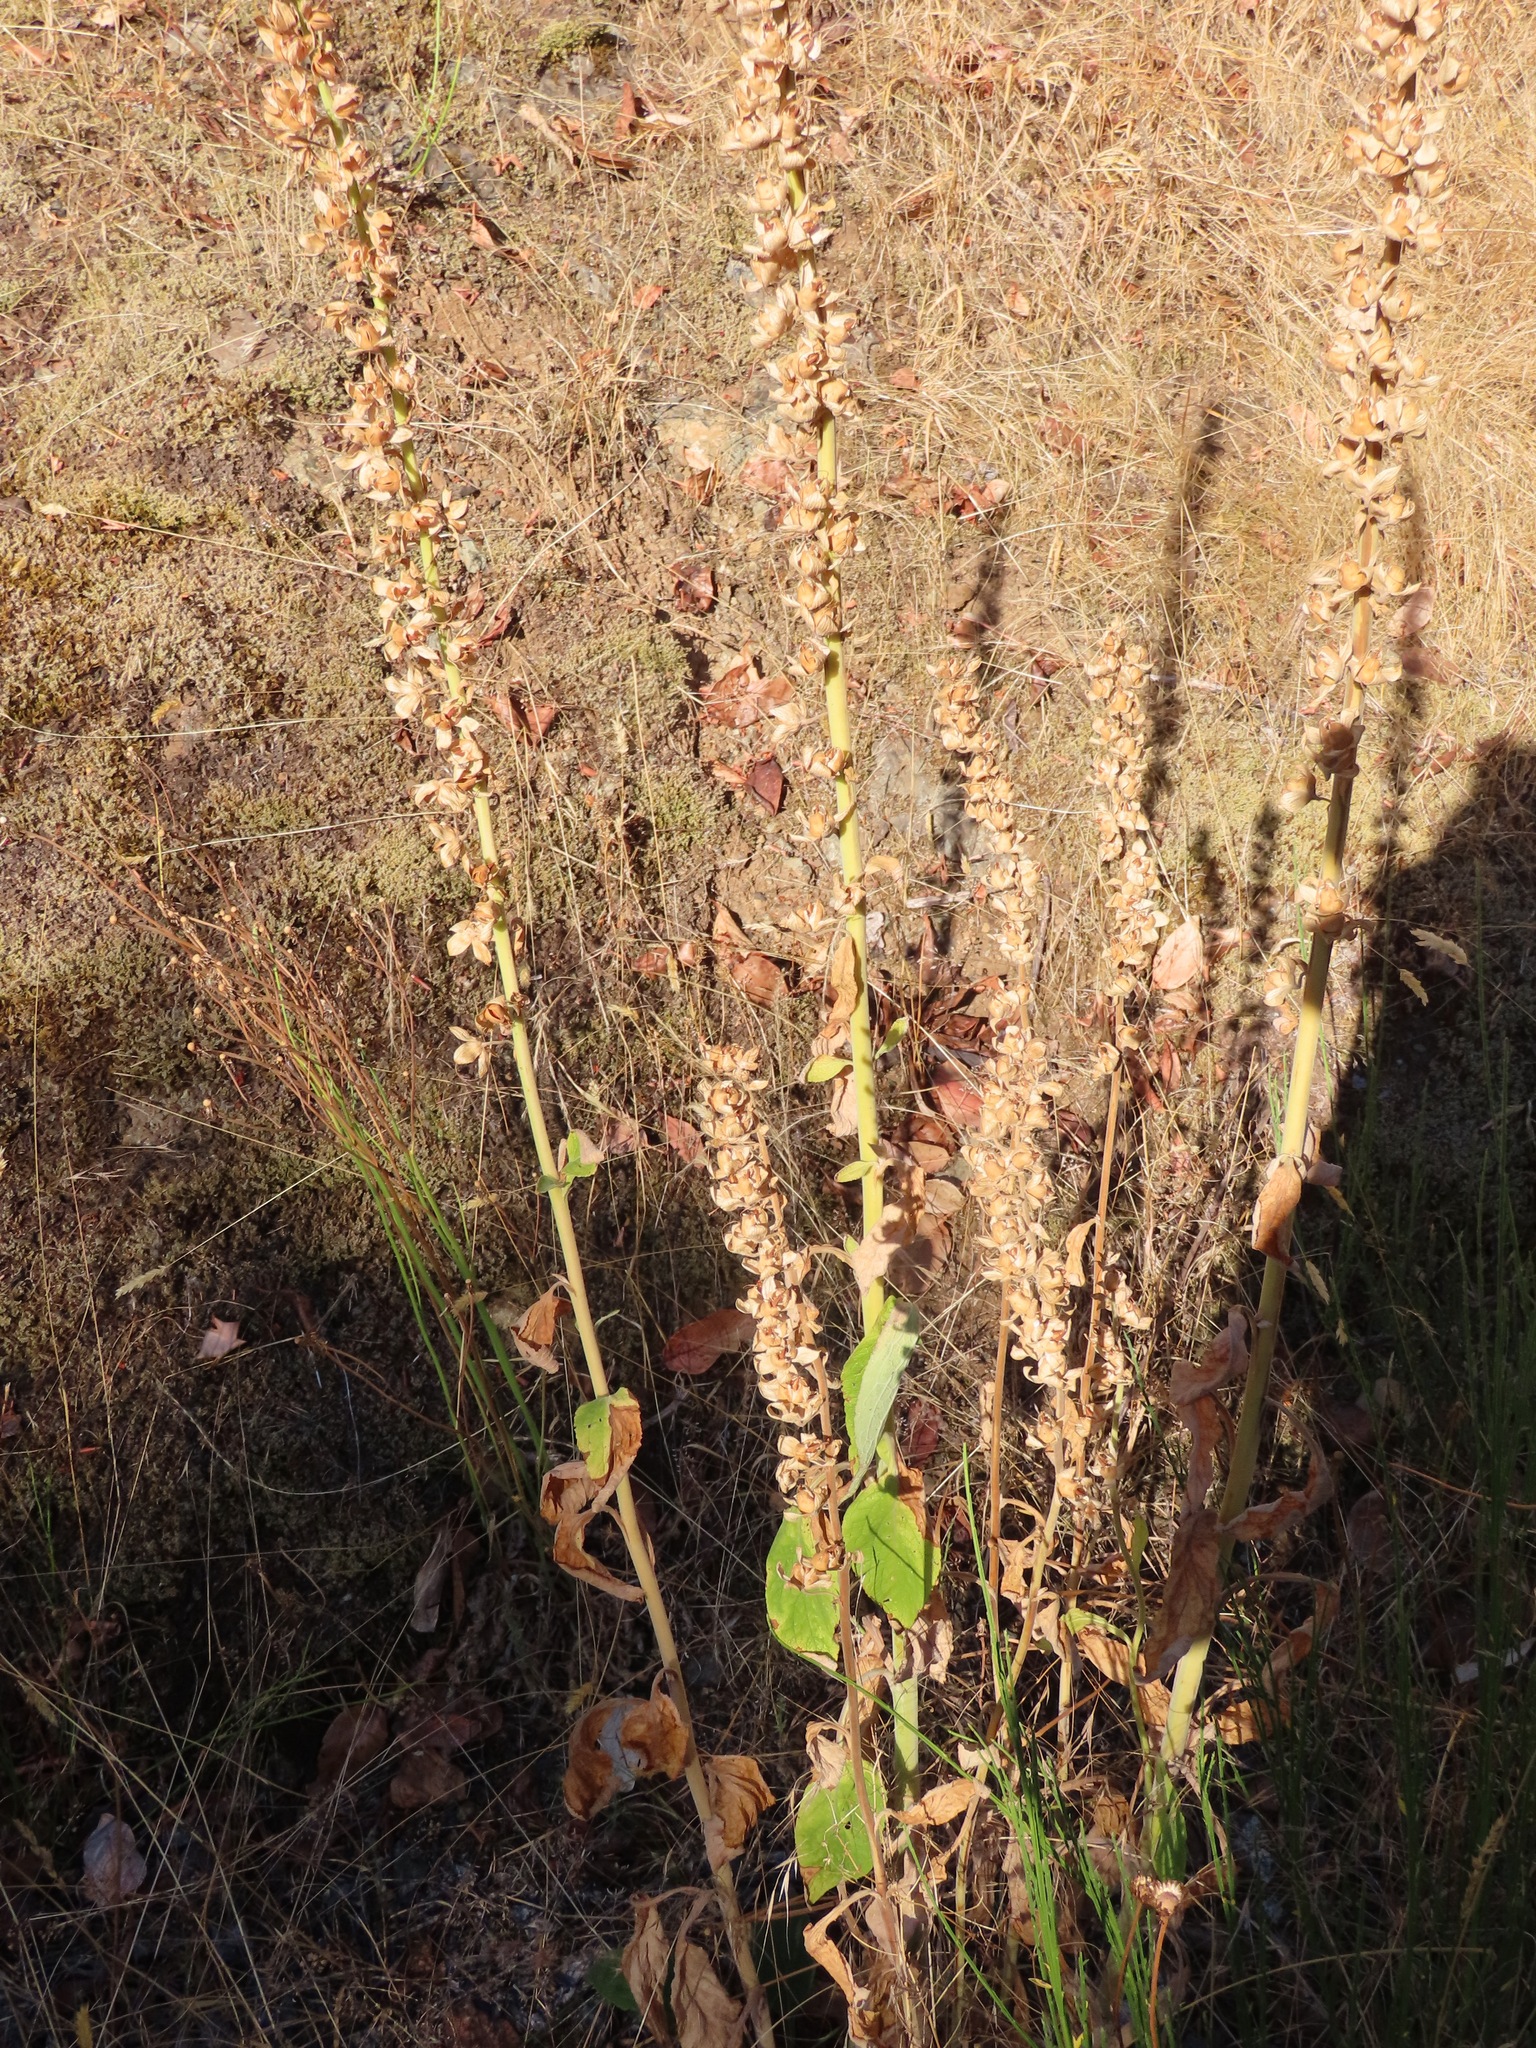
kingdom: Plantae
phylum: Tracheophyta
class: Magnoliopsida
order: Lamiales
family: Plantaginaceae
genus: Digitalis
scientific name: Digitalis purpurea
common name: Foxglove
